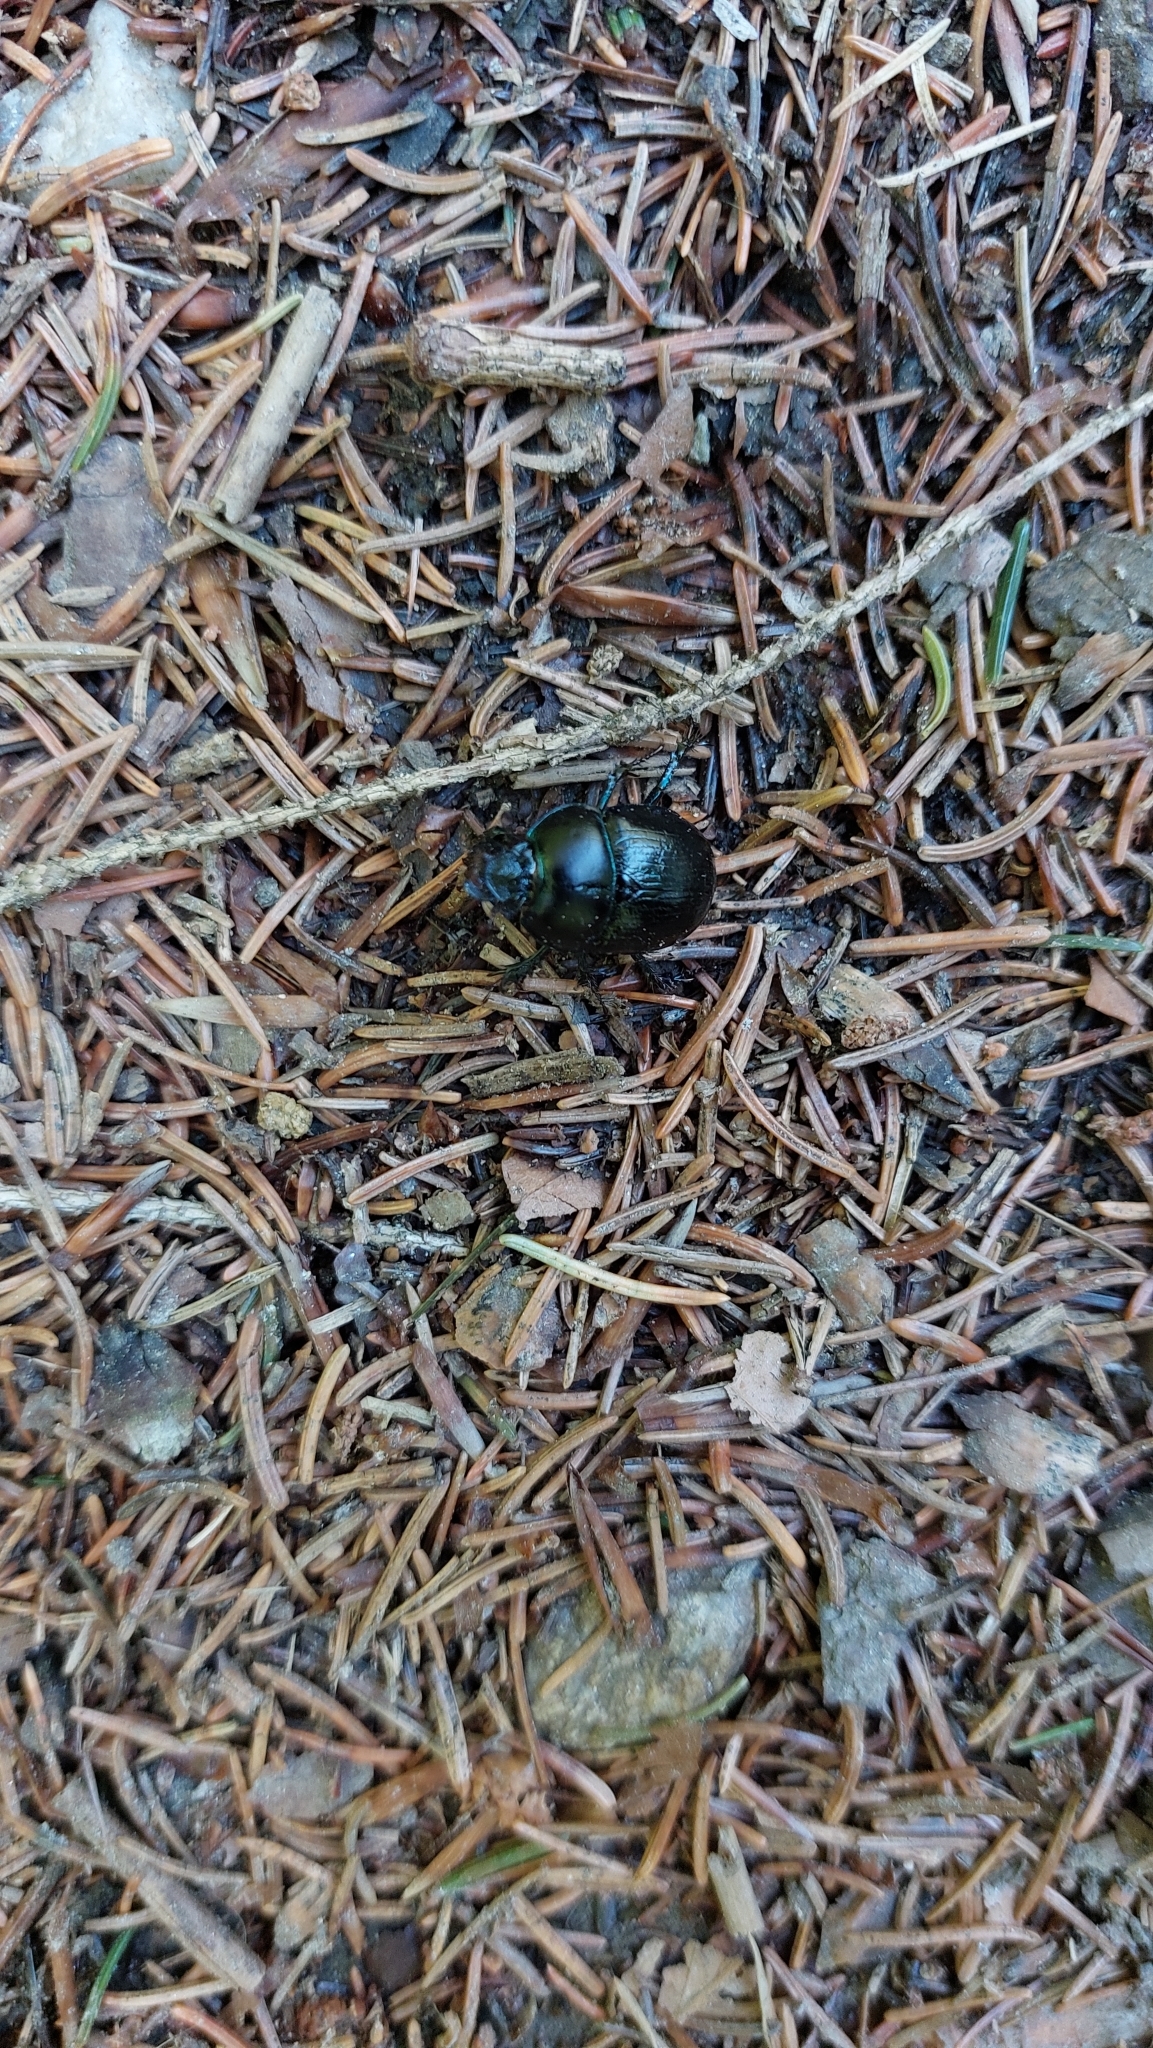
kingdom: Animalia
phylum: Arthropoda
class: Insecta
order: Coleoptera
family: Geotrupidae
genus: Anoplotrupes
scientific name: Anoplotrupes stercorosus
